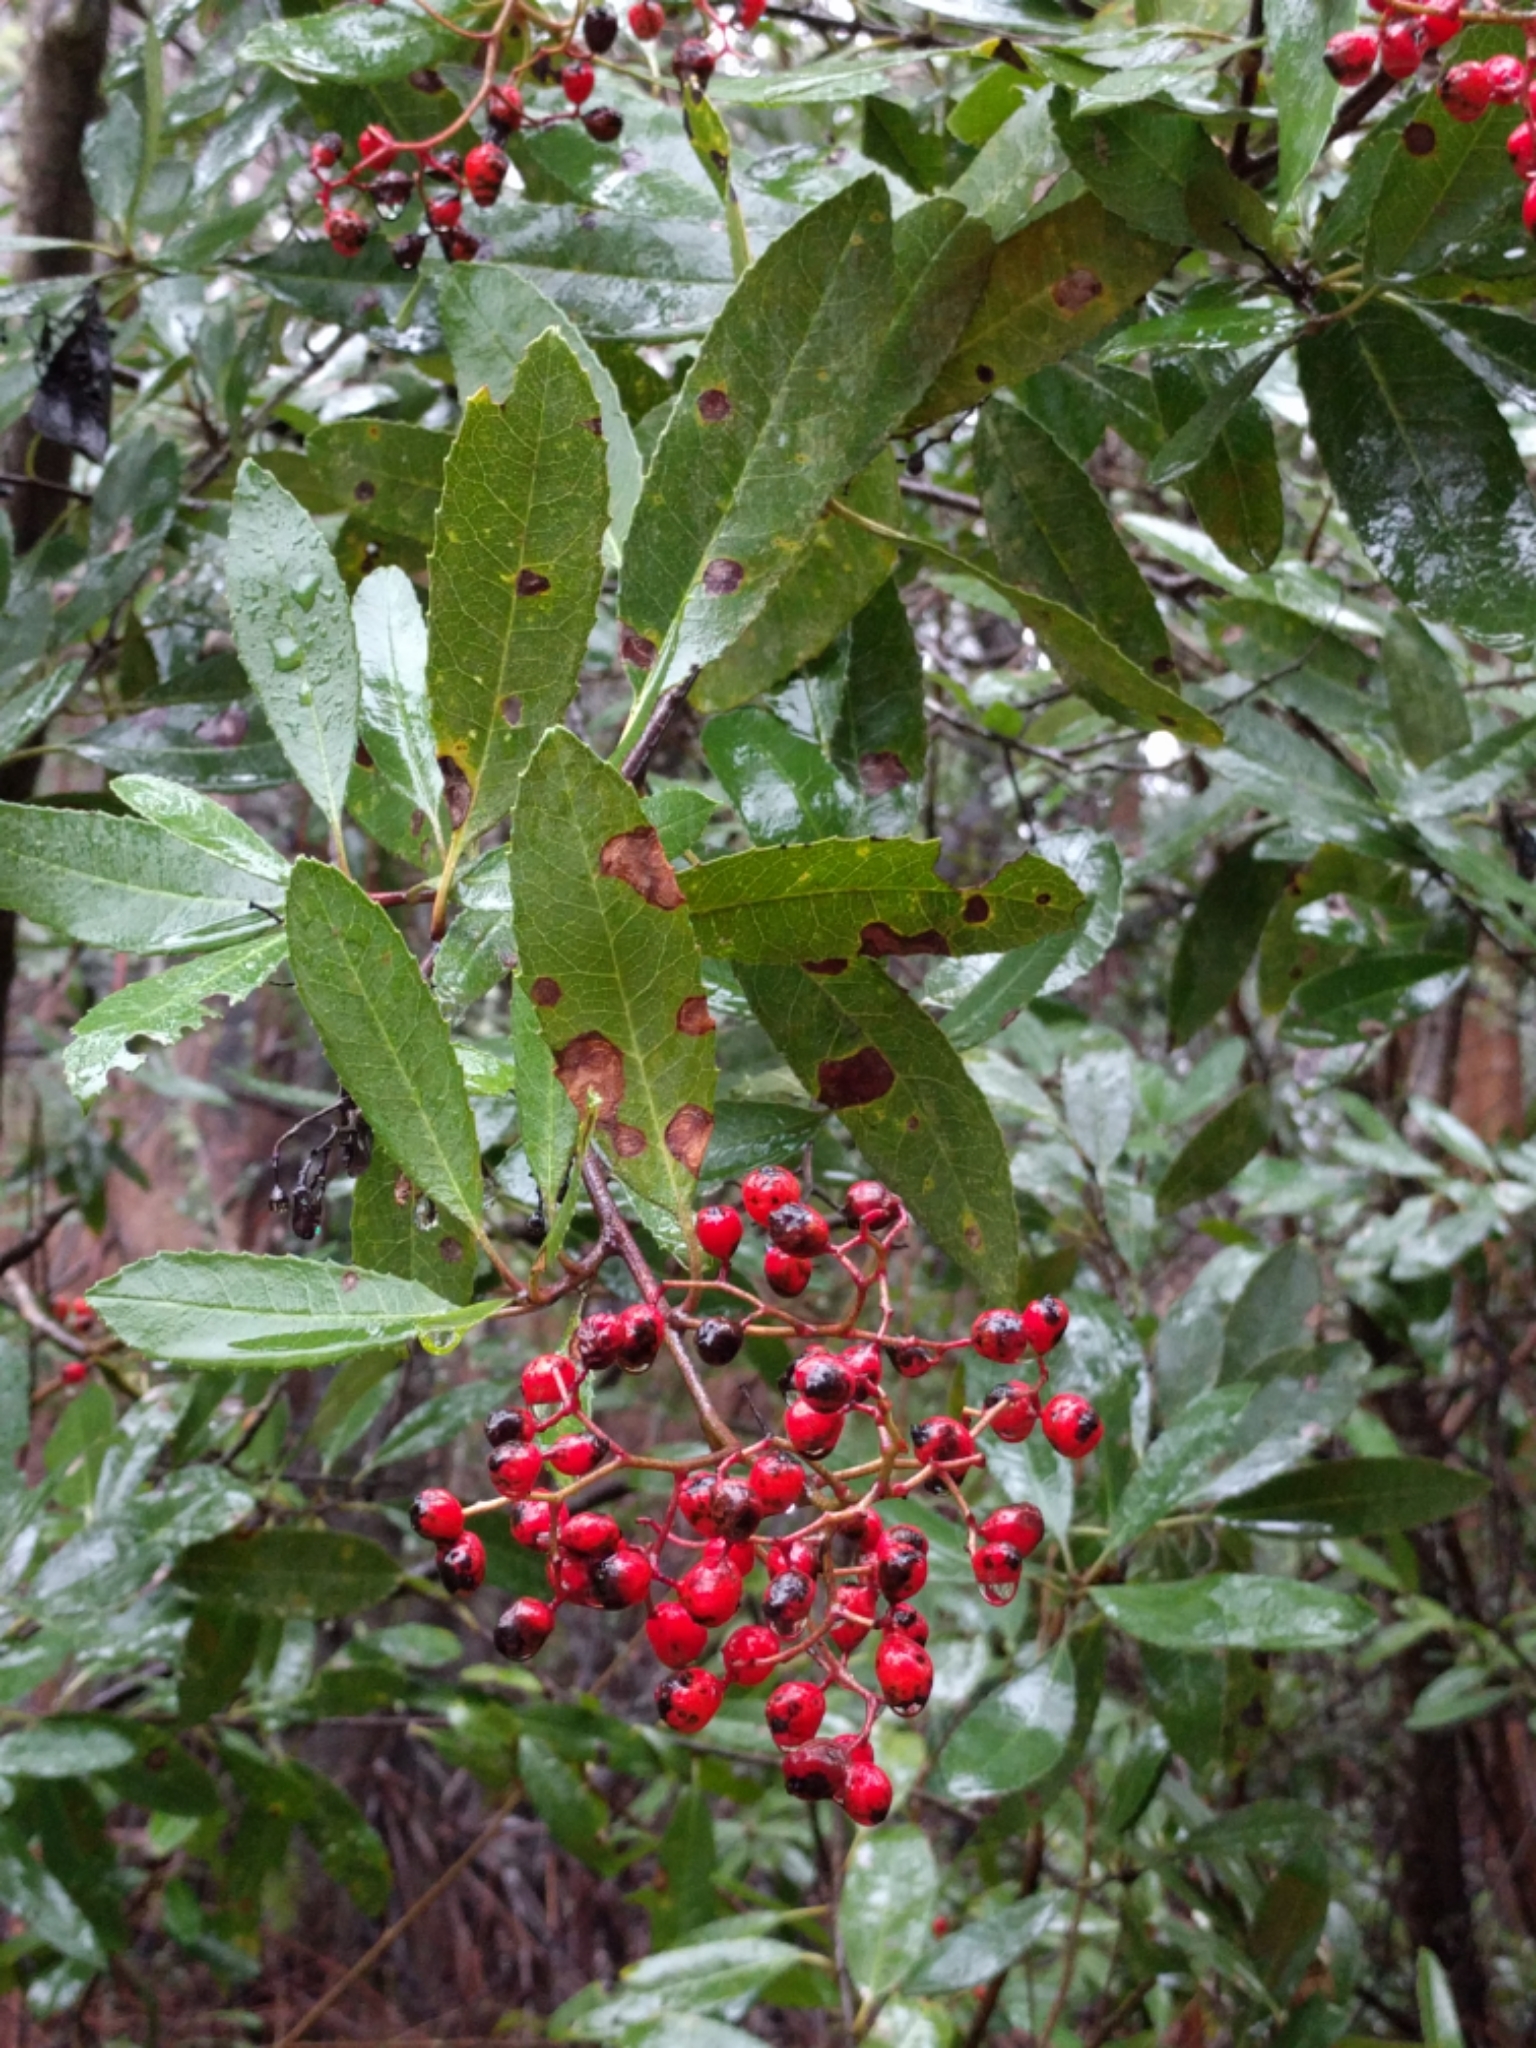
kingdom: Plantae
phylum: Tracheophyta
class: Magnoliopsida
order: Rosales
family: Rosaceae
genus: Heteromeles
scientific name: Heteromeles arbutifolia
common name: California-holly
